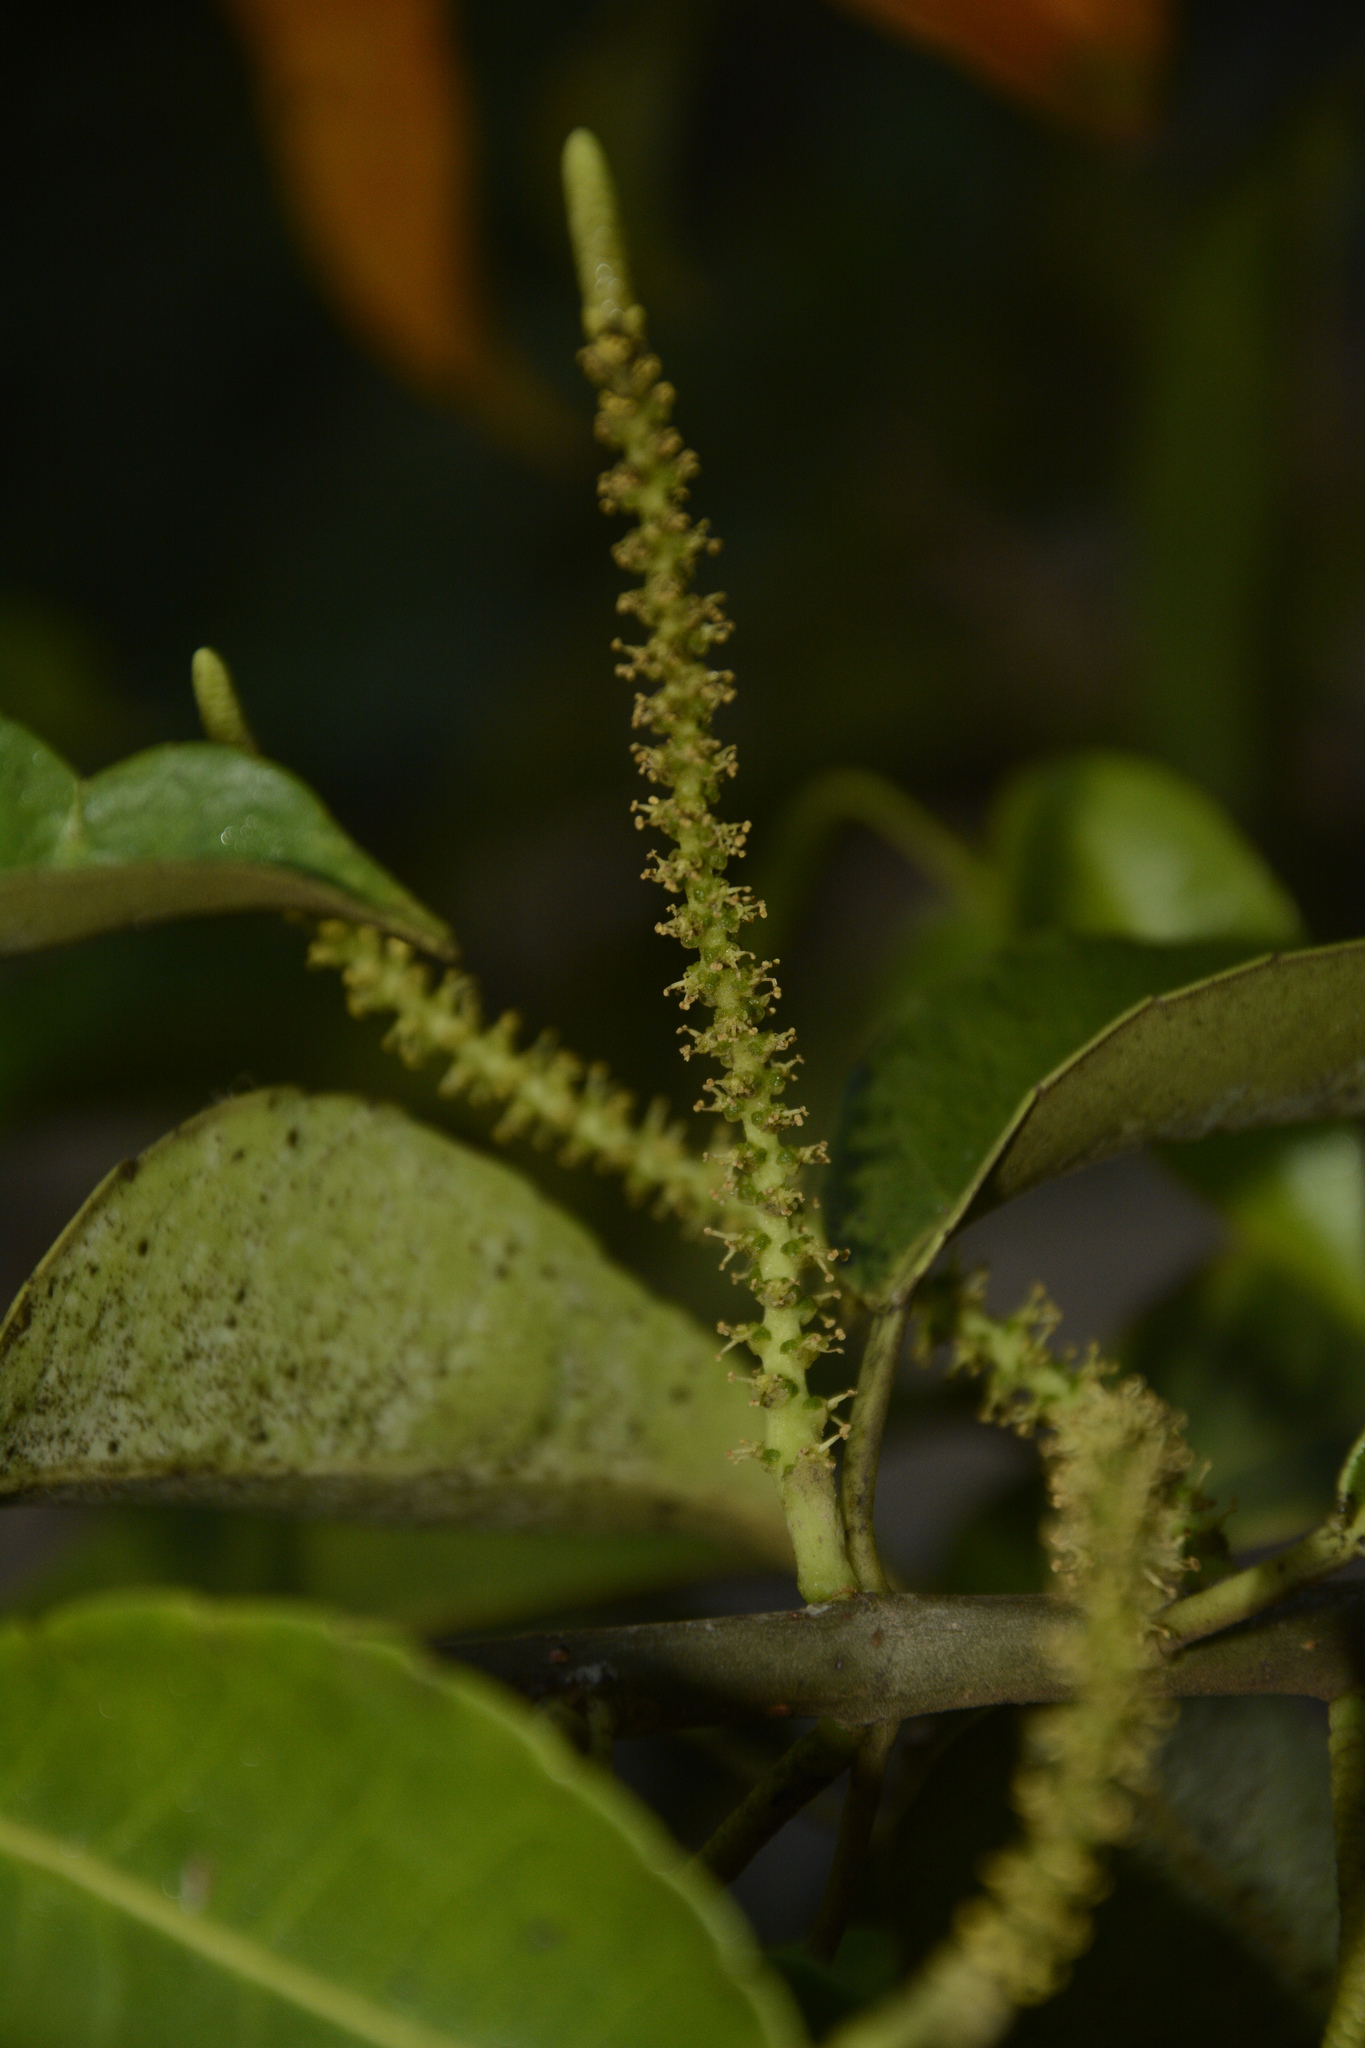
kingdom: Plantae
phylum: Tracheophyta
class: Magnoliopsida
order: Malpighiales
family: Euphorbiaceae
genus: Excoecaria
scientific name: Excoecaria agallocha
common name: River poisontree
